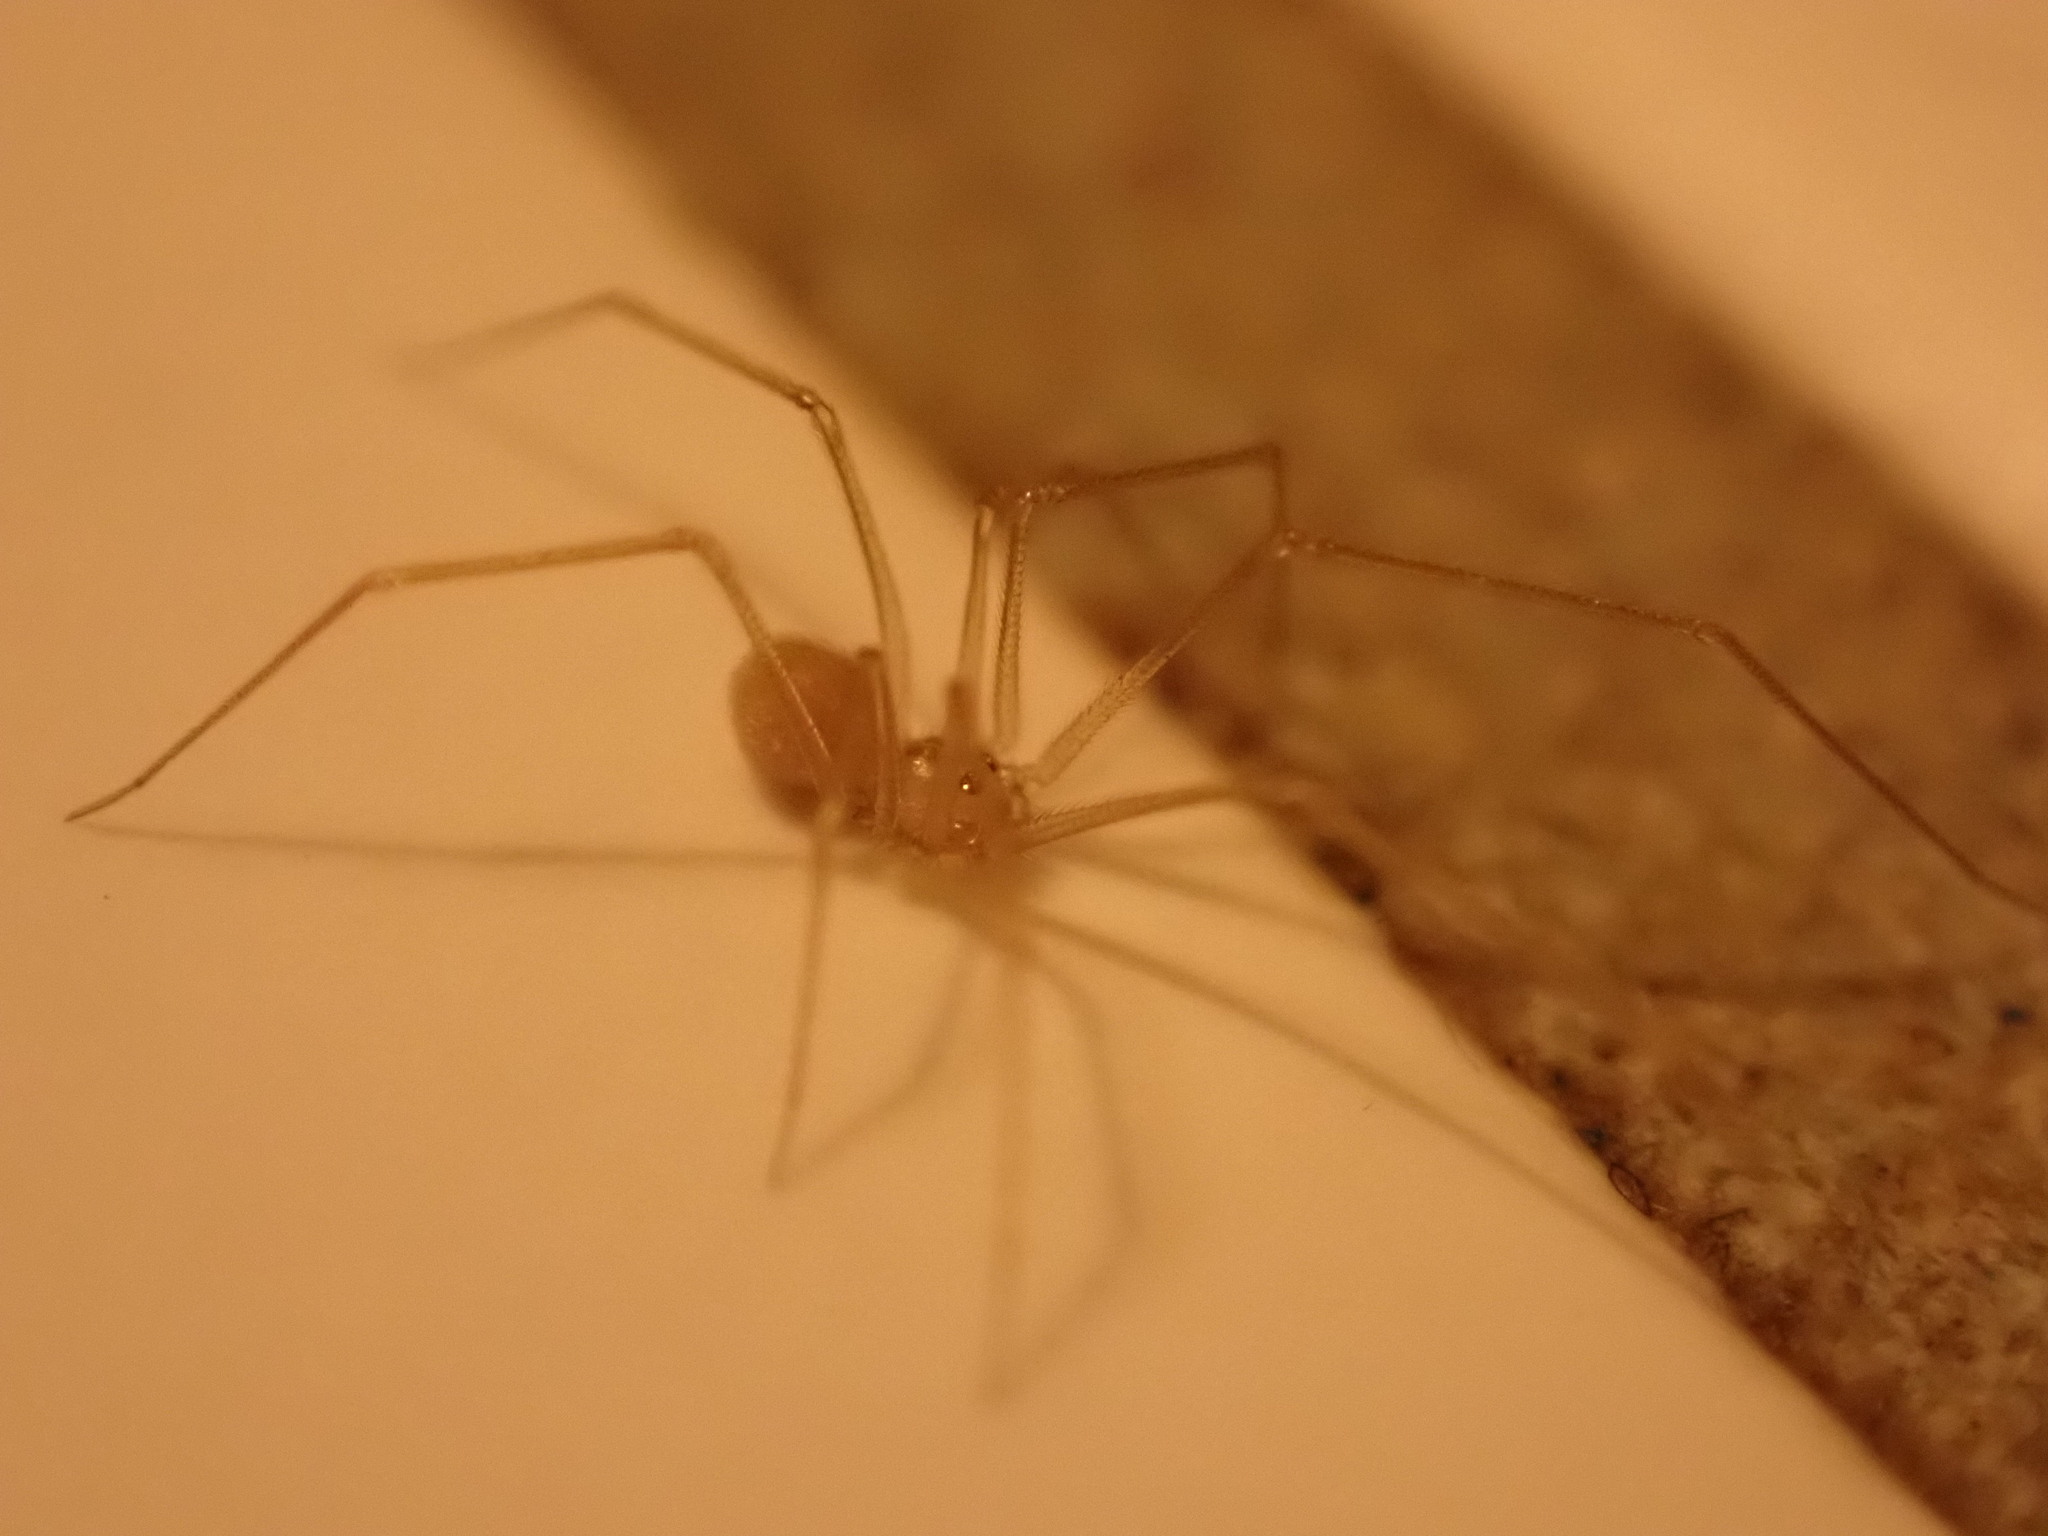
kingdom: Animalia
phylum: Arthropoda
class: Arachnida
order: Araneae
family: Pholcidae
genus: Spermophora
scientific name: Spermophora senoculata
